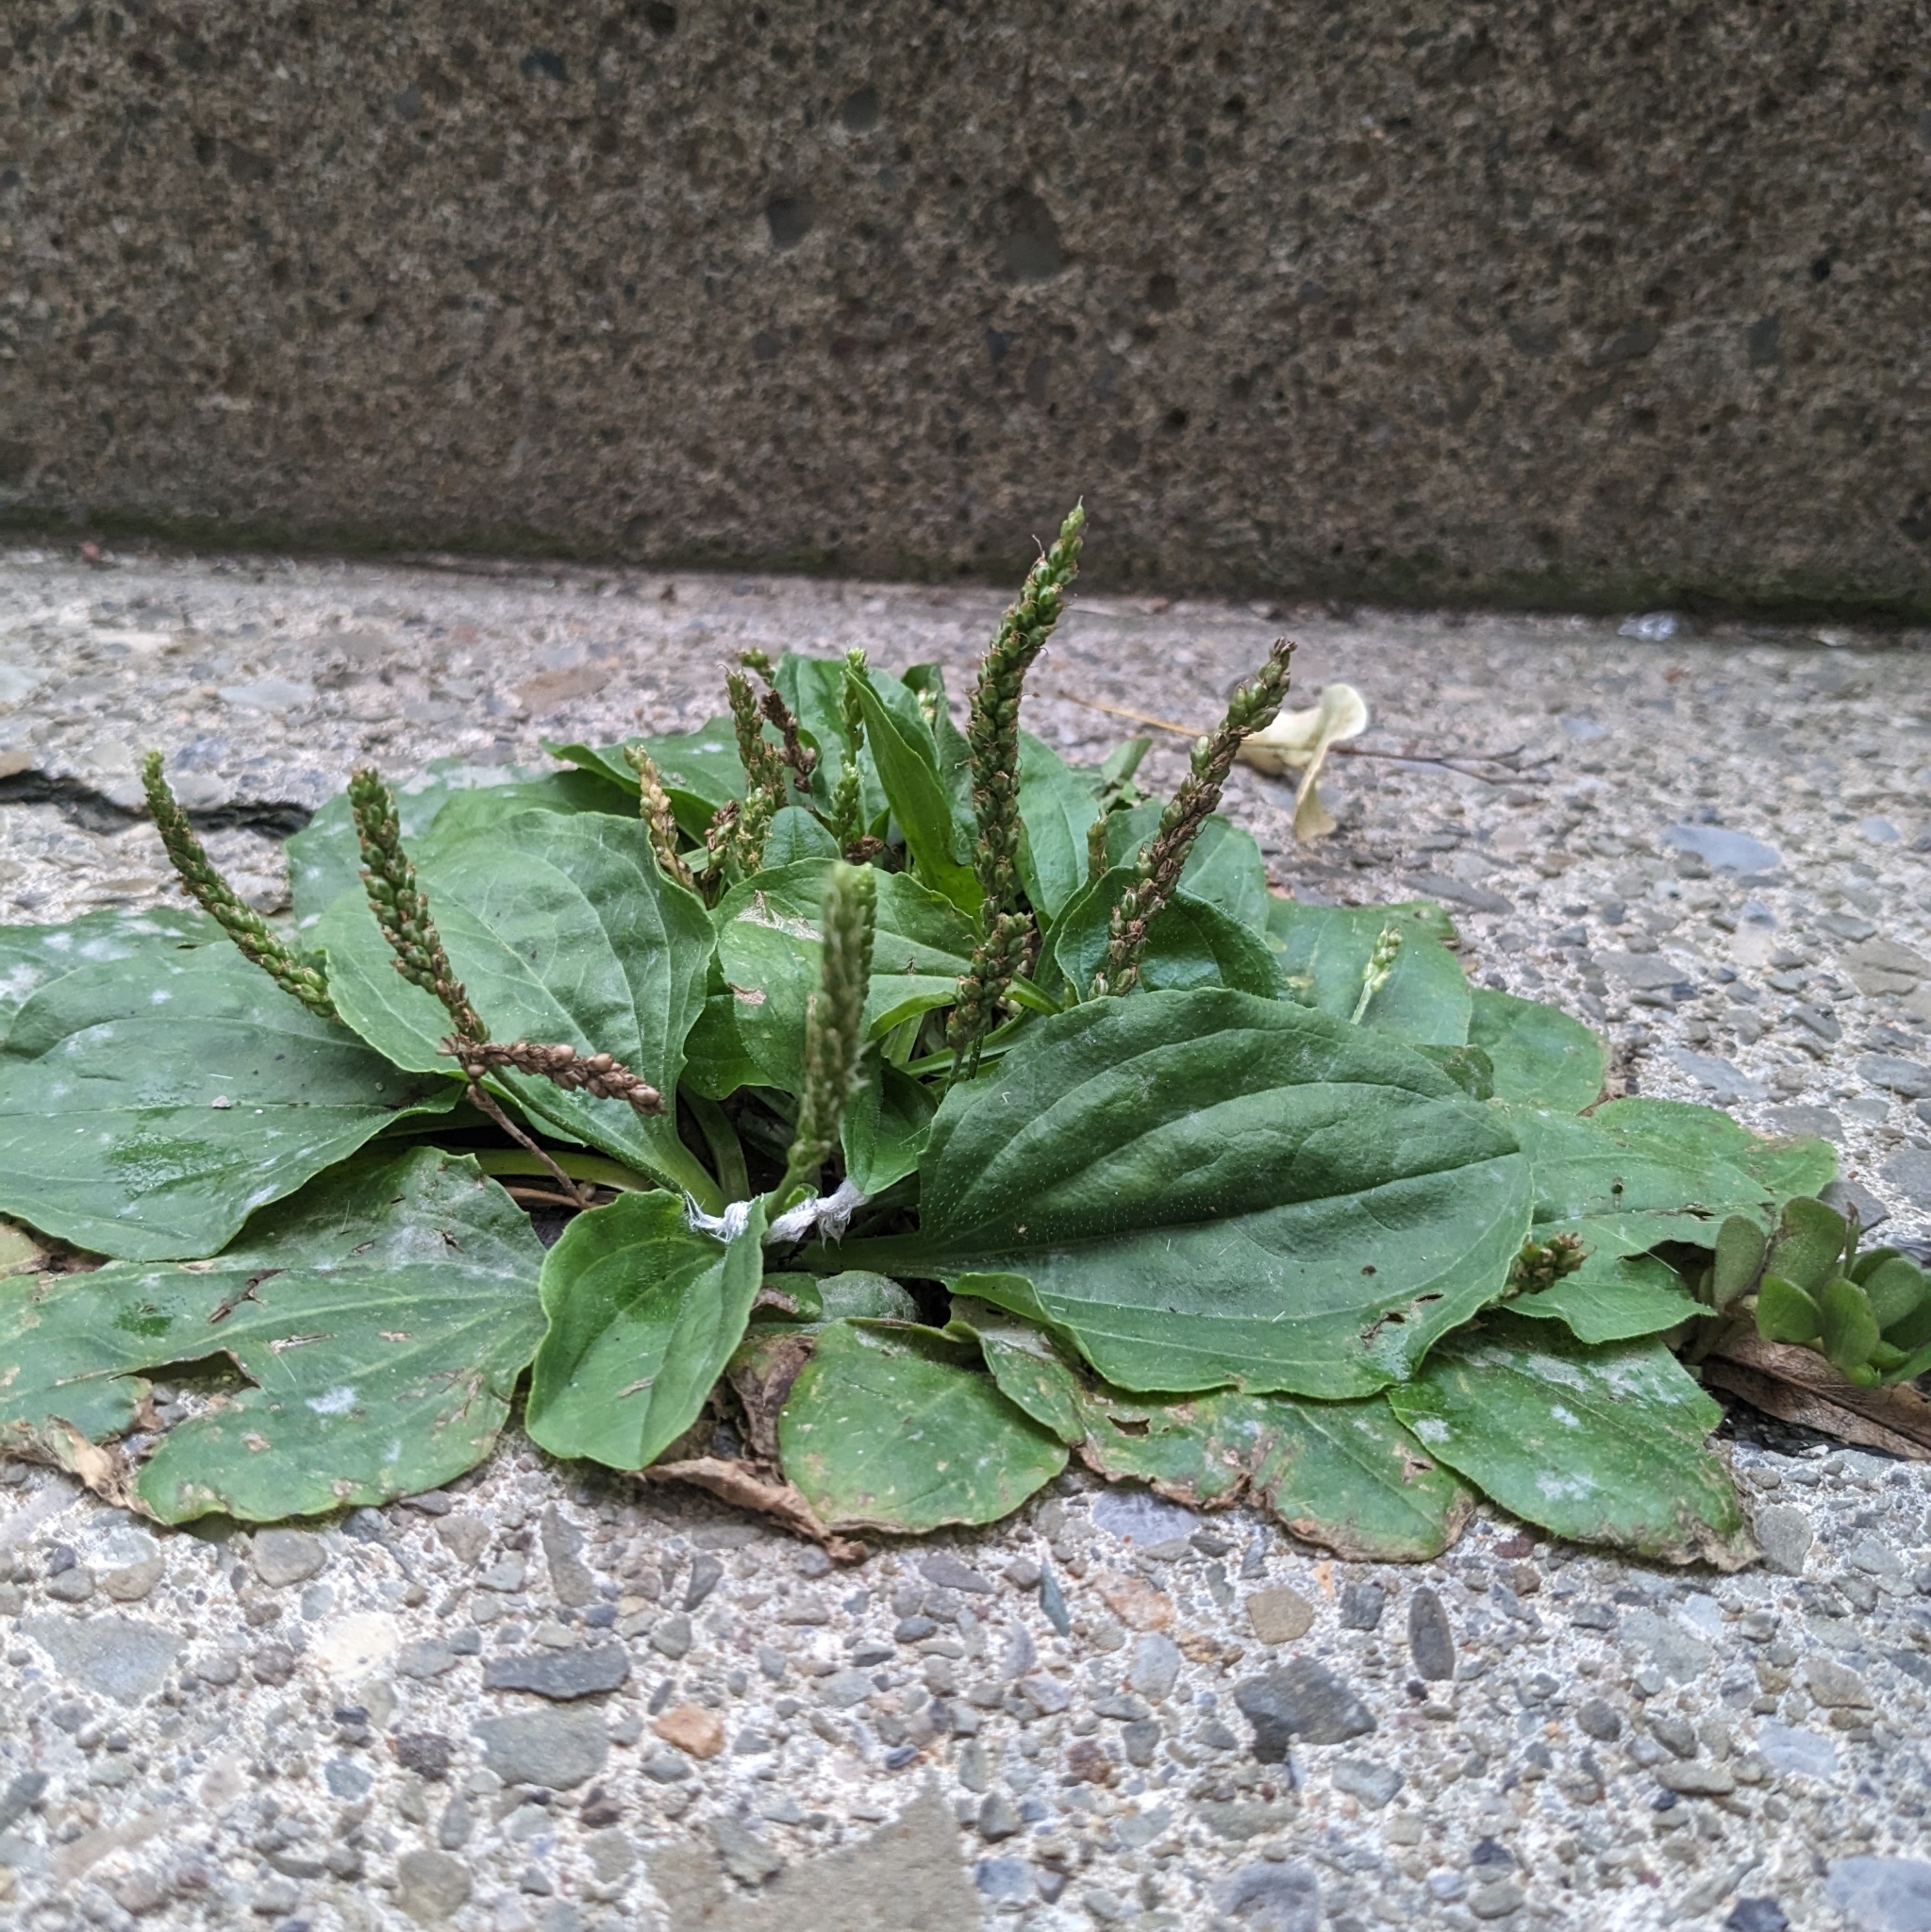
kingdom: Plantae
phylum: Tracheophyta
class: Magnoliopsida
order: Lamiales
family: Plantaginaceae
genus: Plantago
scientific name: Plantago major
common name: Common plantain
